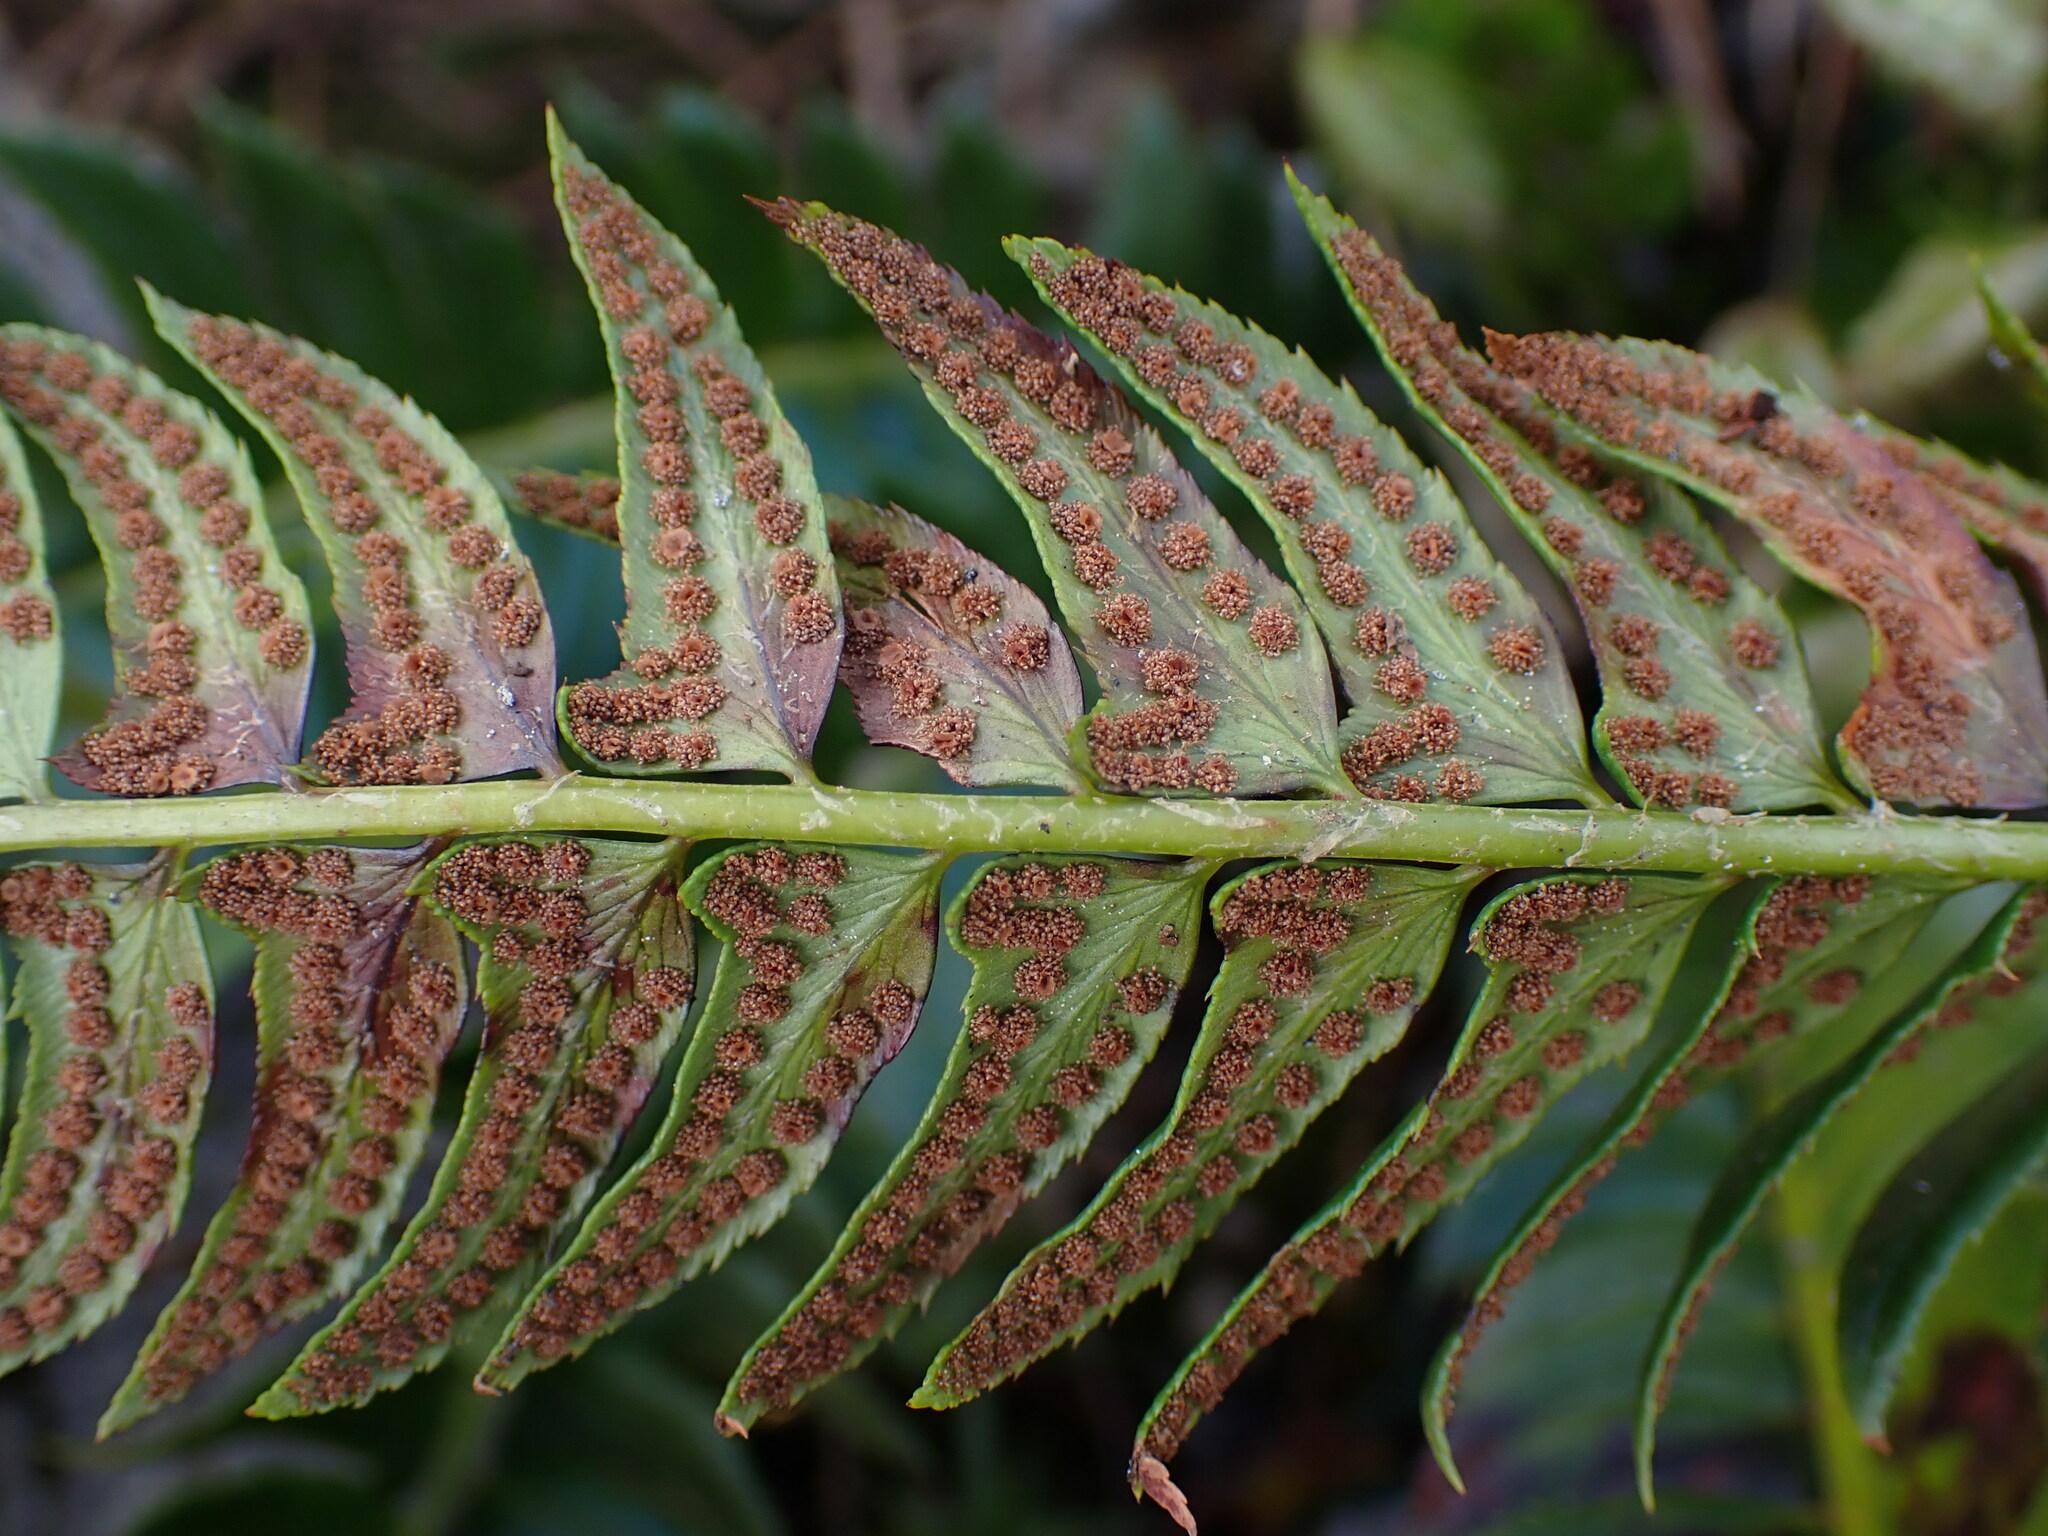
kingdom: Plantae
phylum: Tracheophyta
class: Polypodiopsida
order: Polypodiales
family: Dryopteridaceae
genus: Polystichum
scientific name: Polystichum lonchitis
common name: Holly fern
